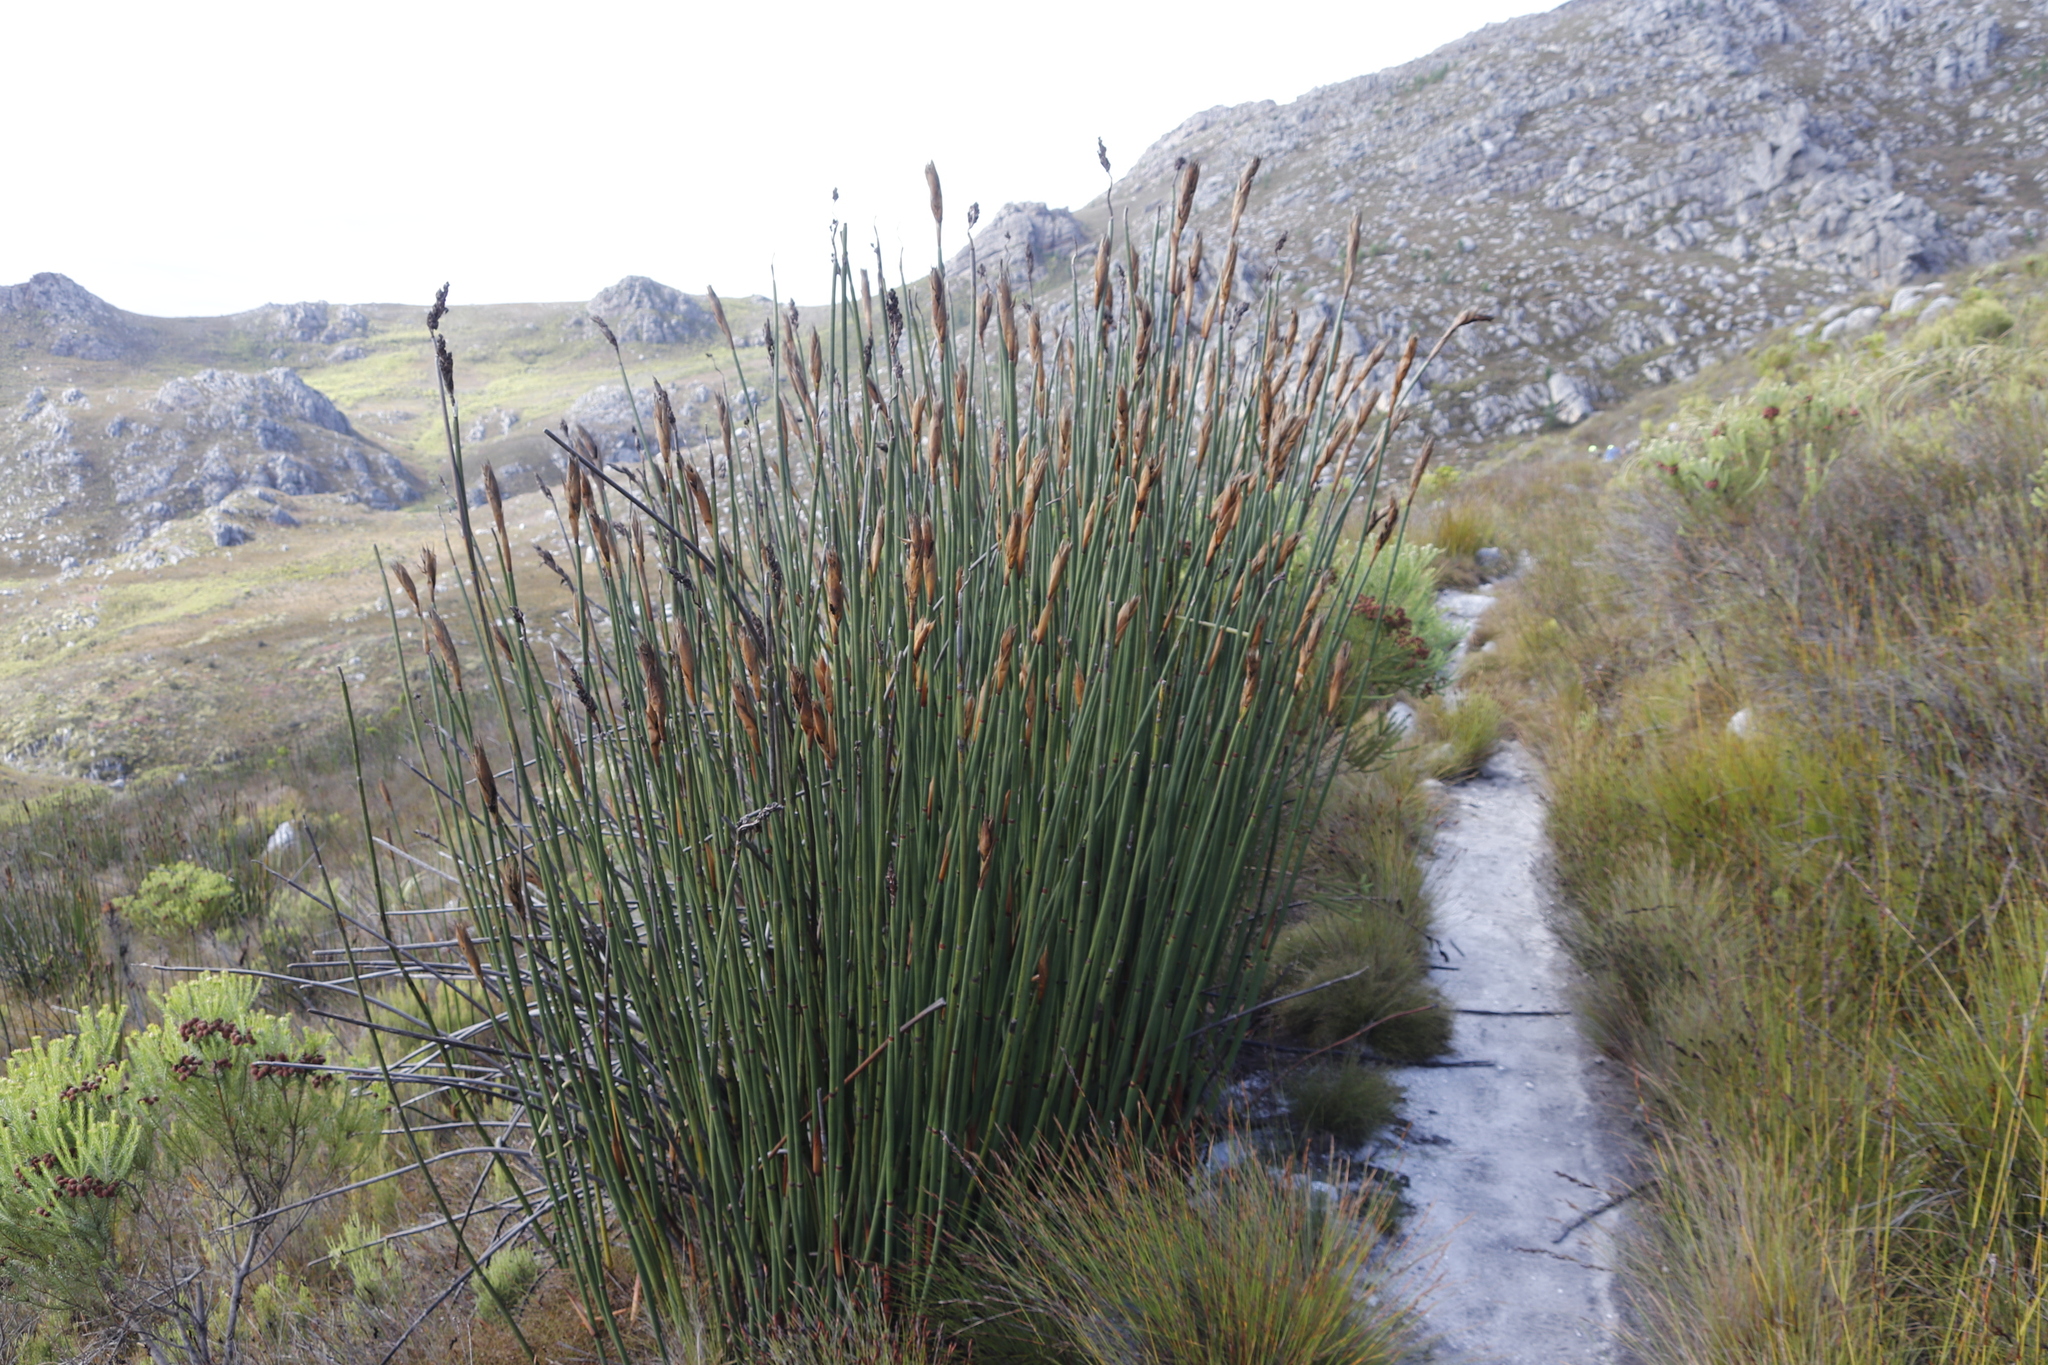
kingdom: Plantae
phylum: Tracheophyta
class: Liliopsida
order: Poales
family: Restionaceae
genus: Elegia
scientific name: Elegia mucronata
